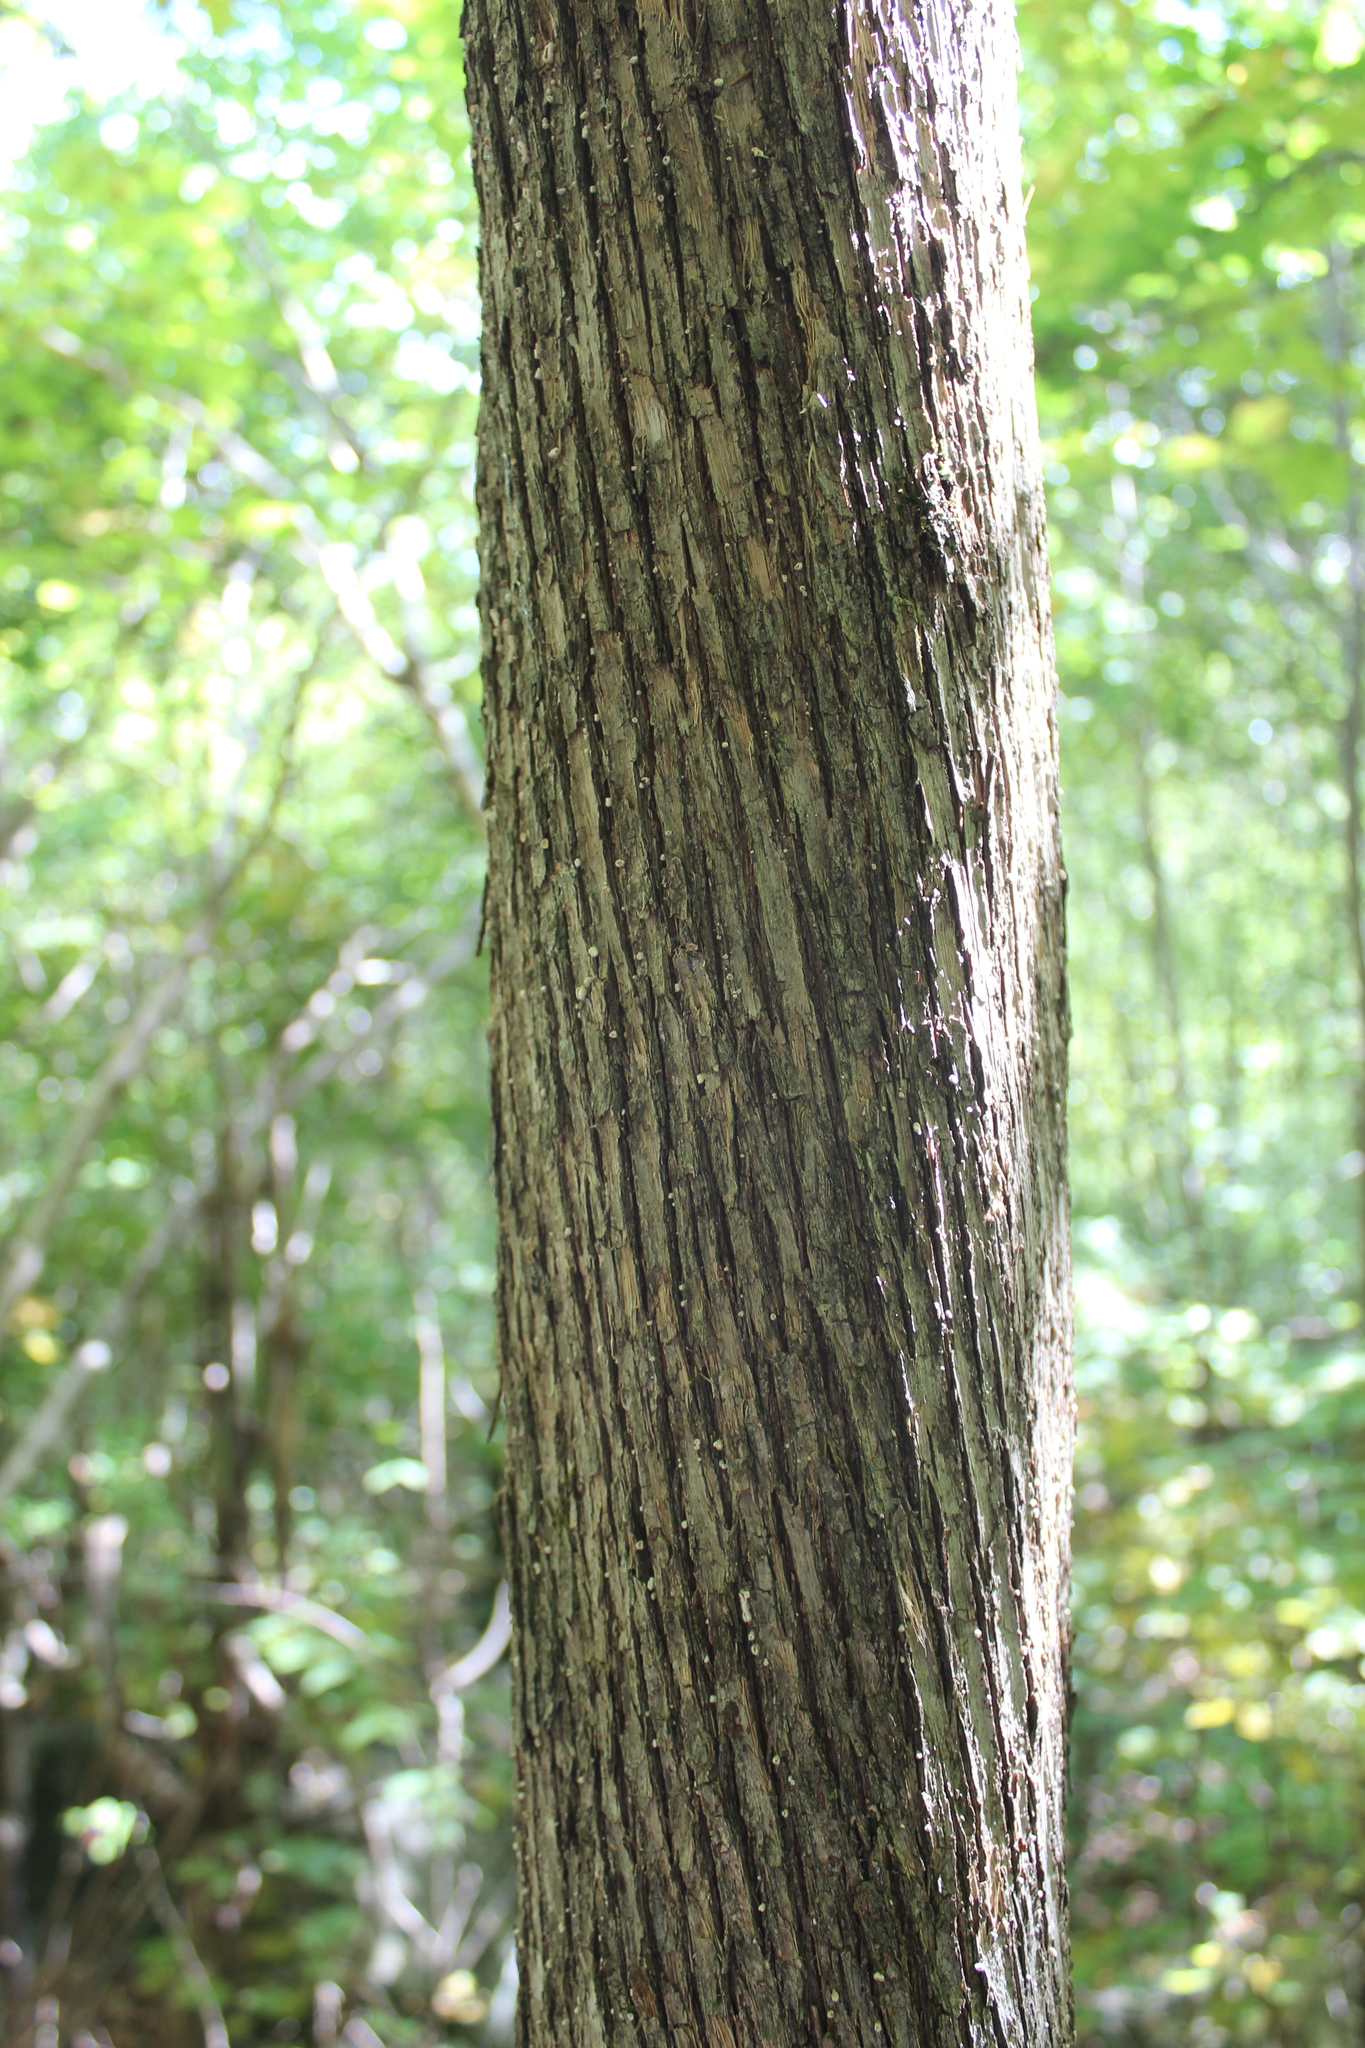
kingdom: Plantae
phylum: Tracheophyta
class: Magnoliopsida
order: Fagales
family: Betulaceae
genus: Ostrya
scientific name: Ostrya virginiana
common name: Ironwood
